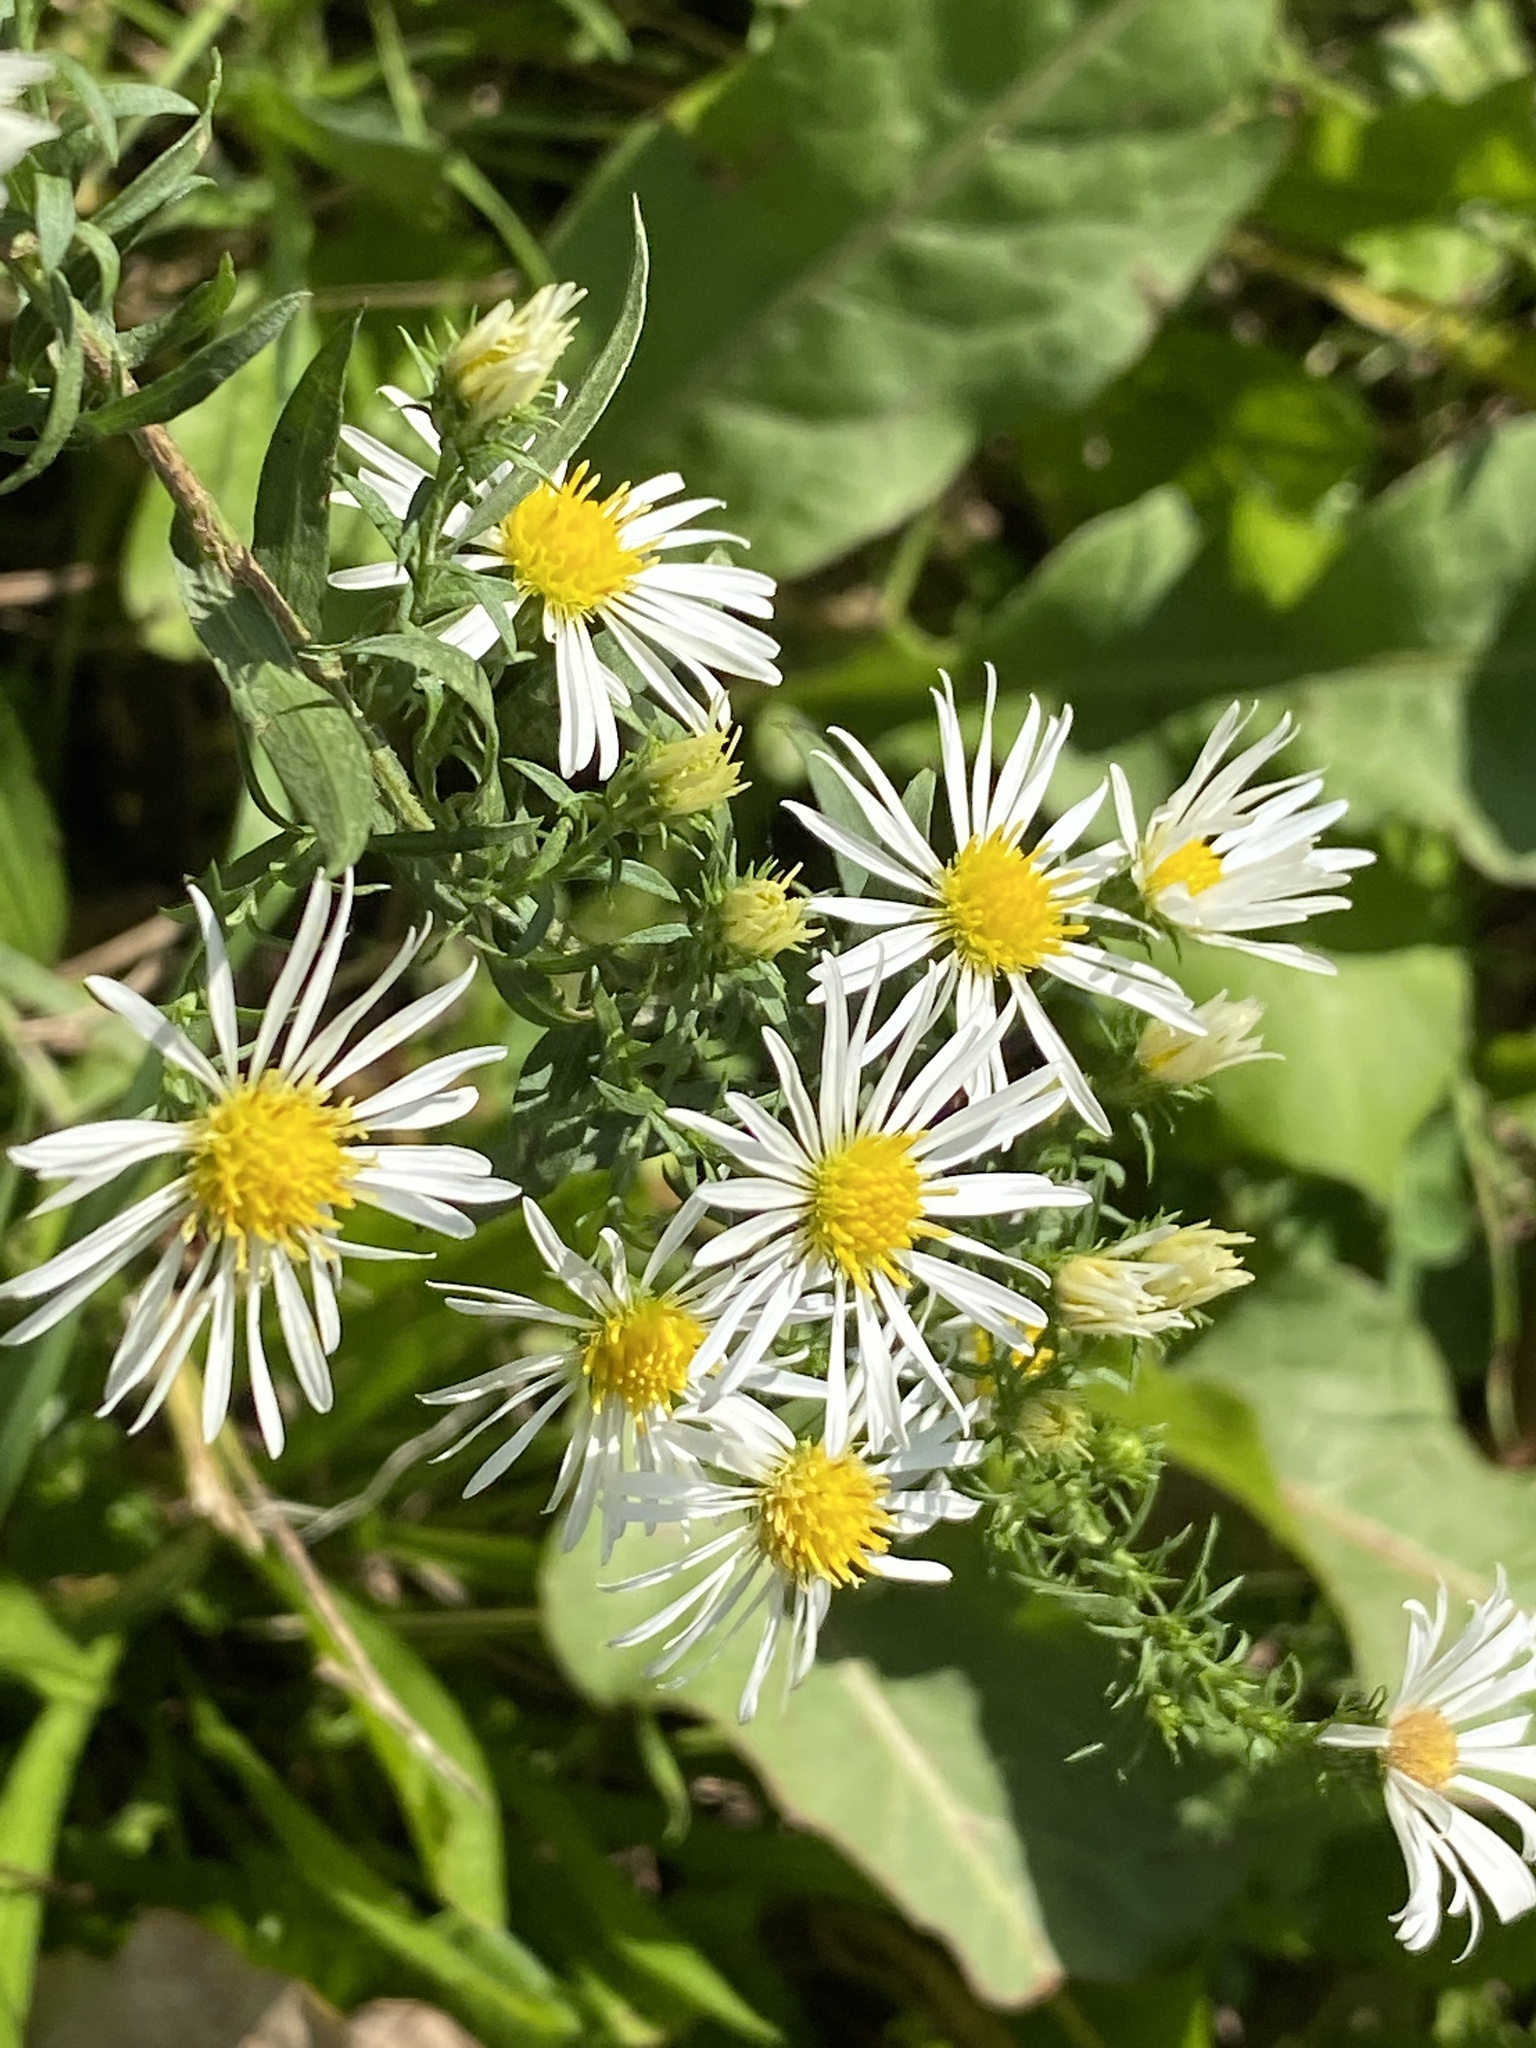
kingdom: Plantae
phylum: Tracheophyta
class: Magnoliopsida
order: Asterales
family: Asteraceae
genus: Symphyotrichum
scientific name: Symphyotrichum pilosum
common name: Awl aster
